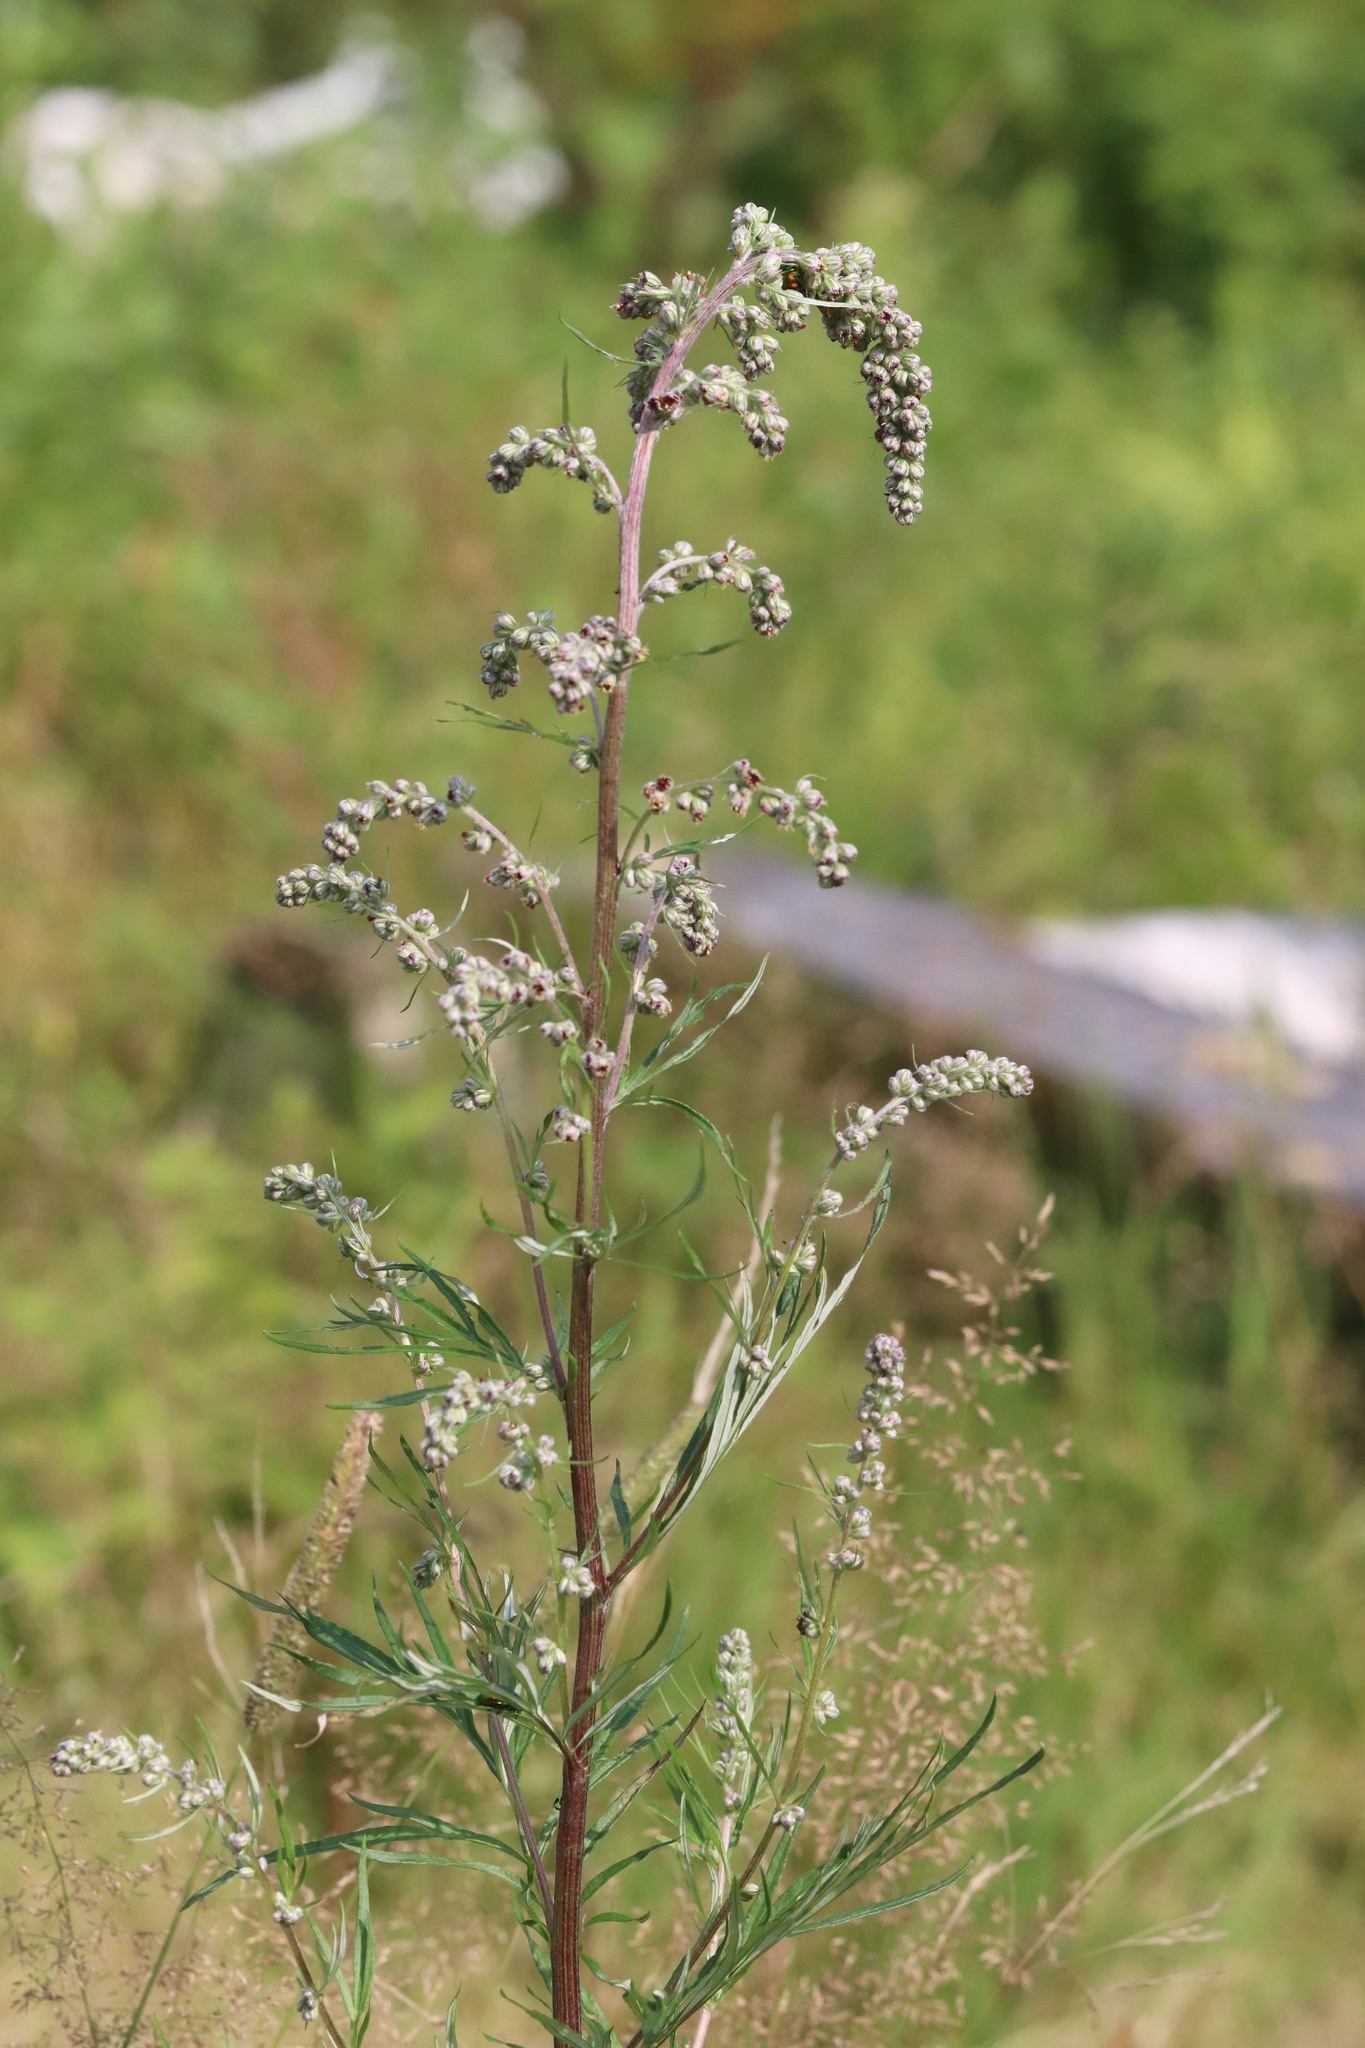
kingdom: Plantae
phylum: Tracheophyta
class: Magnoliopsida
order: Asterales
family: Asteraceae
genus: Artemisia
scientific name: Artemisia vulgaris
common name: Mugwort
